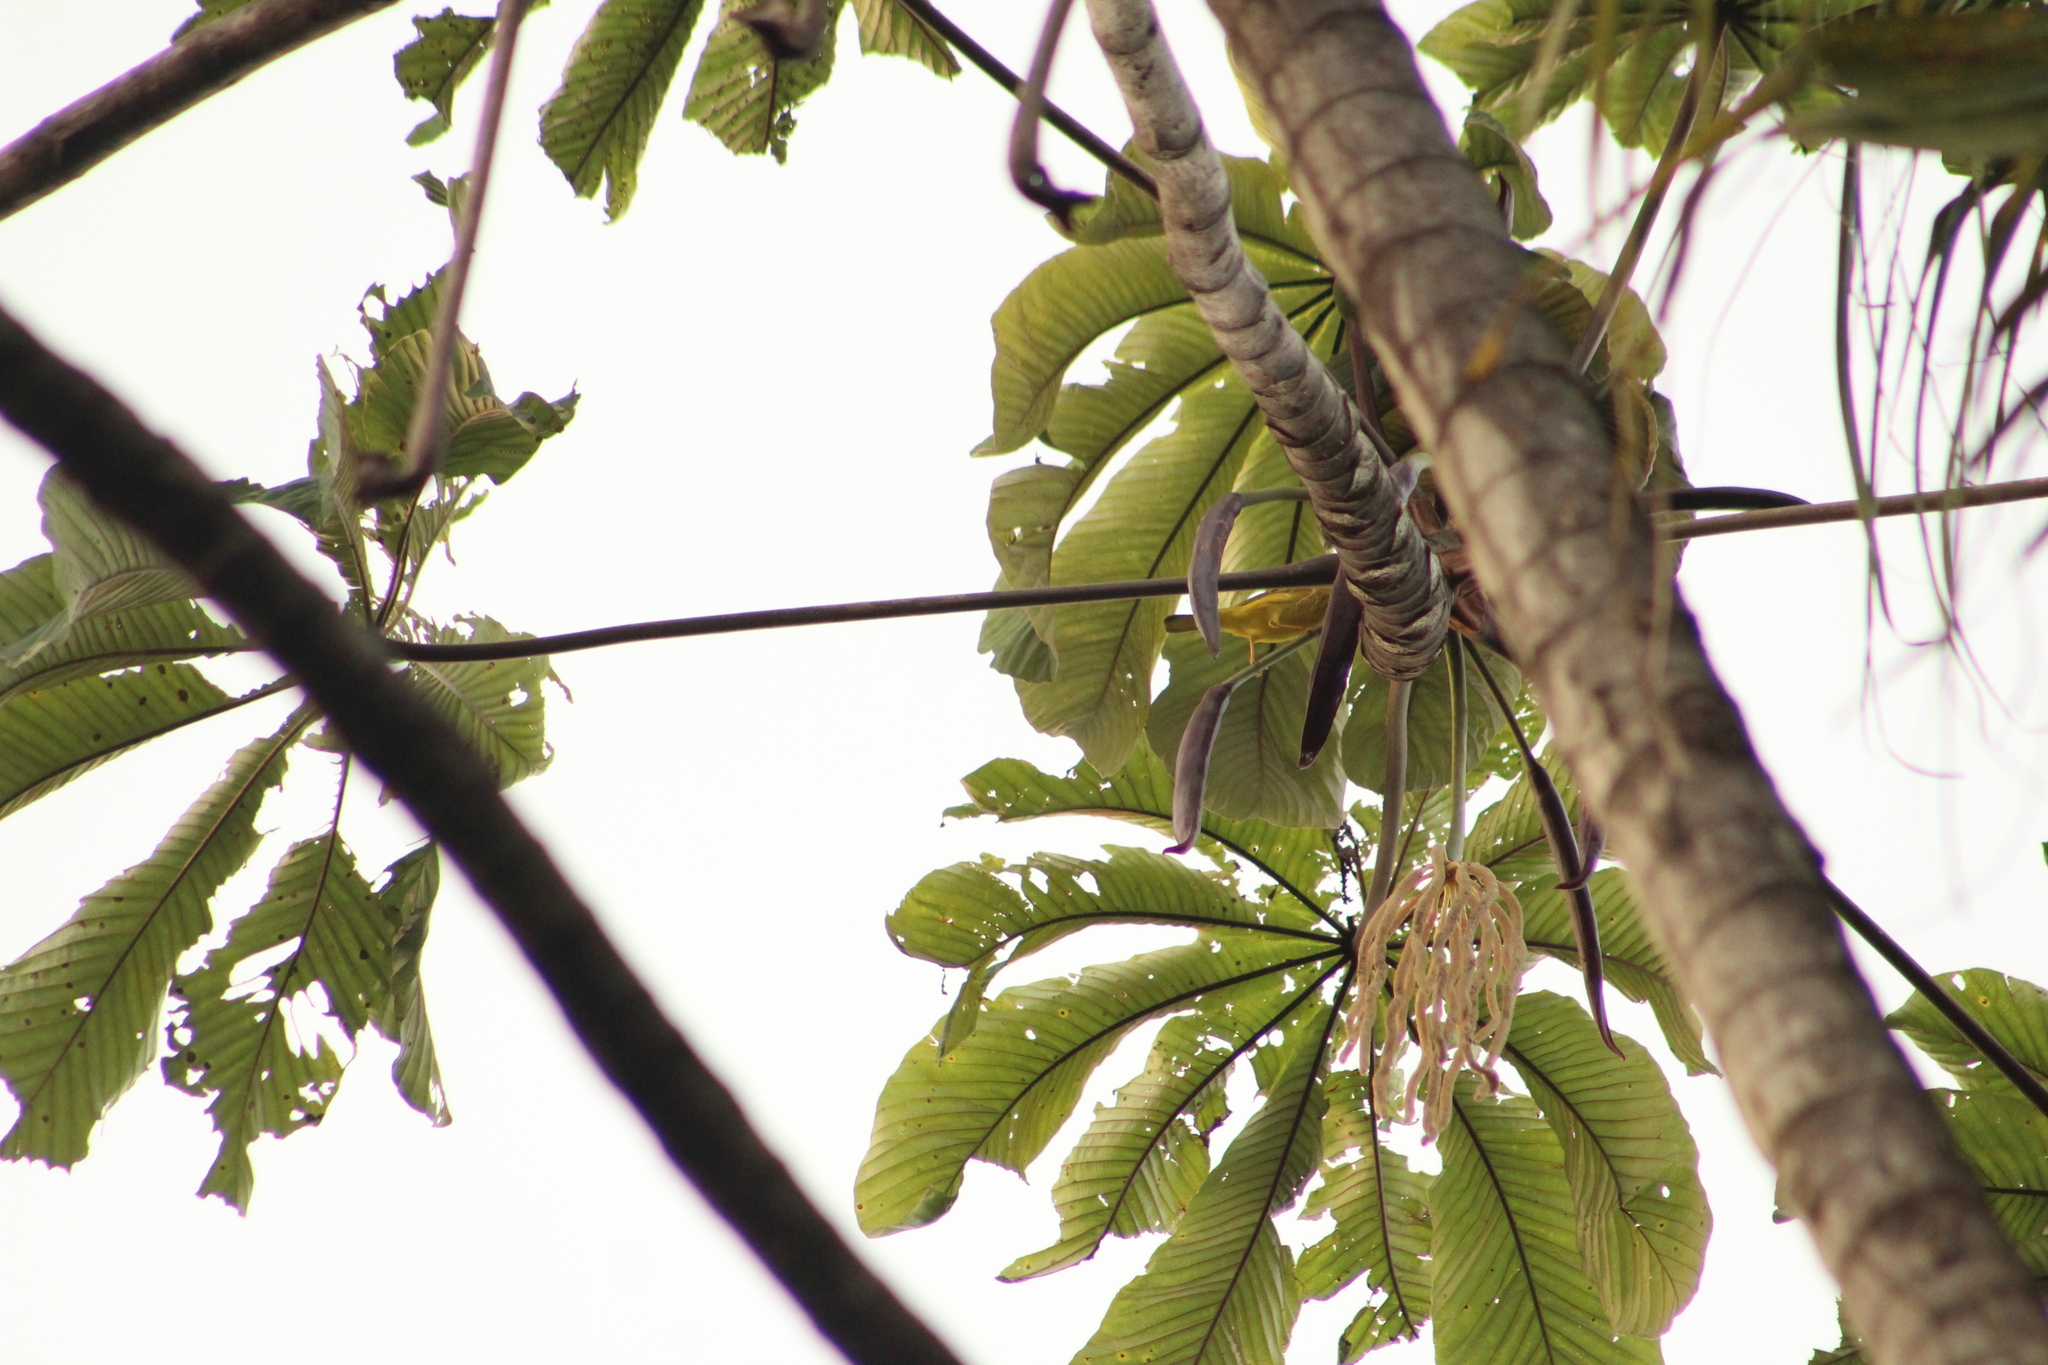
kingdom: Animalia
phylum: Chordata
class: Aves
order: Passeriformes
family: Parulidae
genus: Setophaga
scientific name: Setophaga petechia
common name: Yellow warbler
